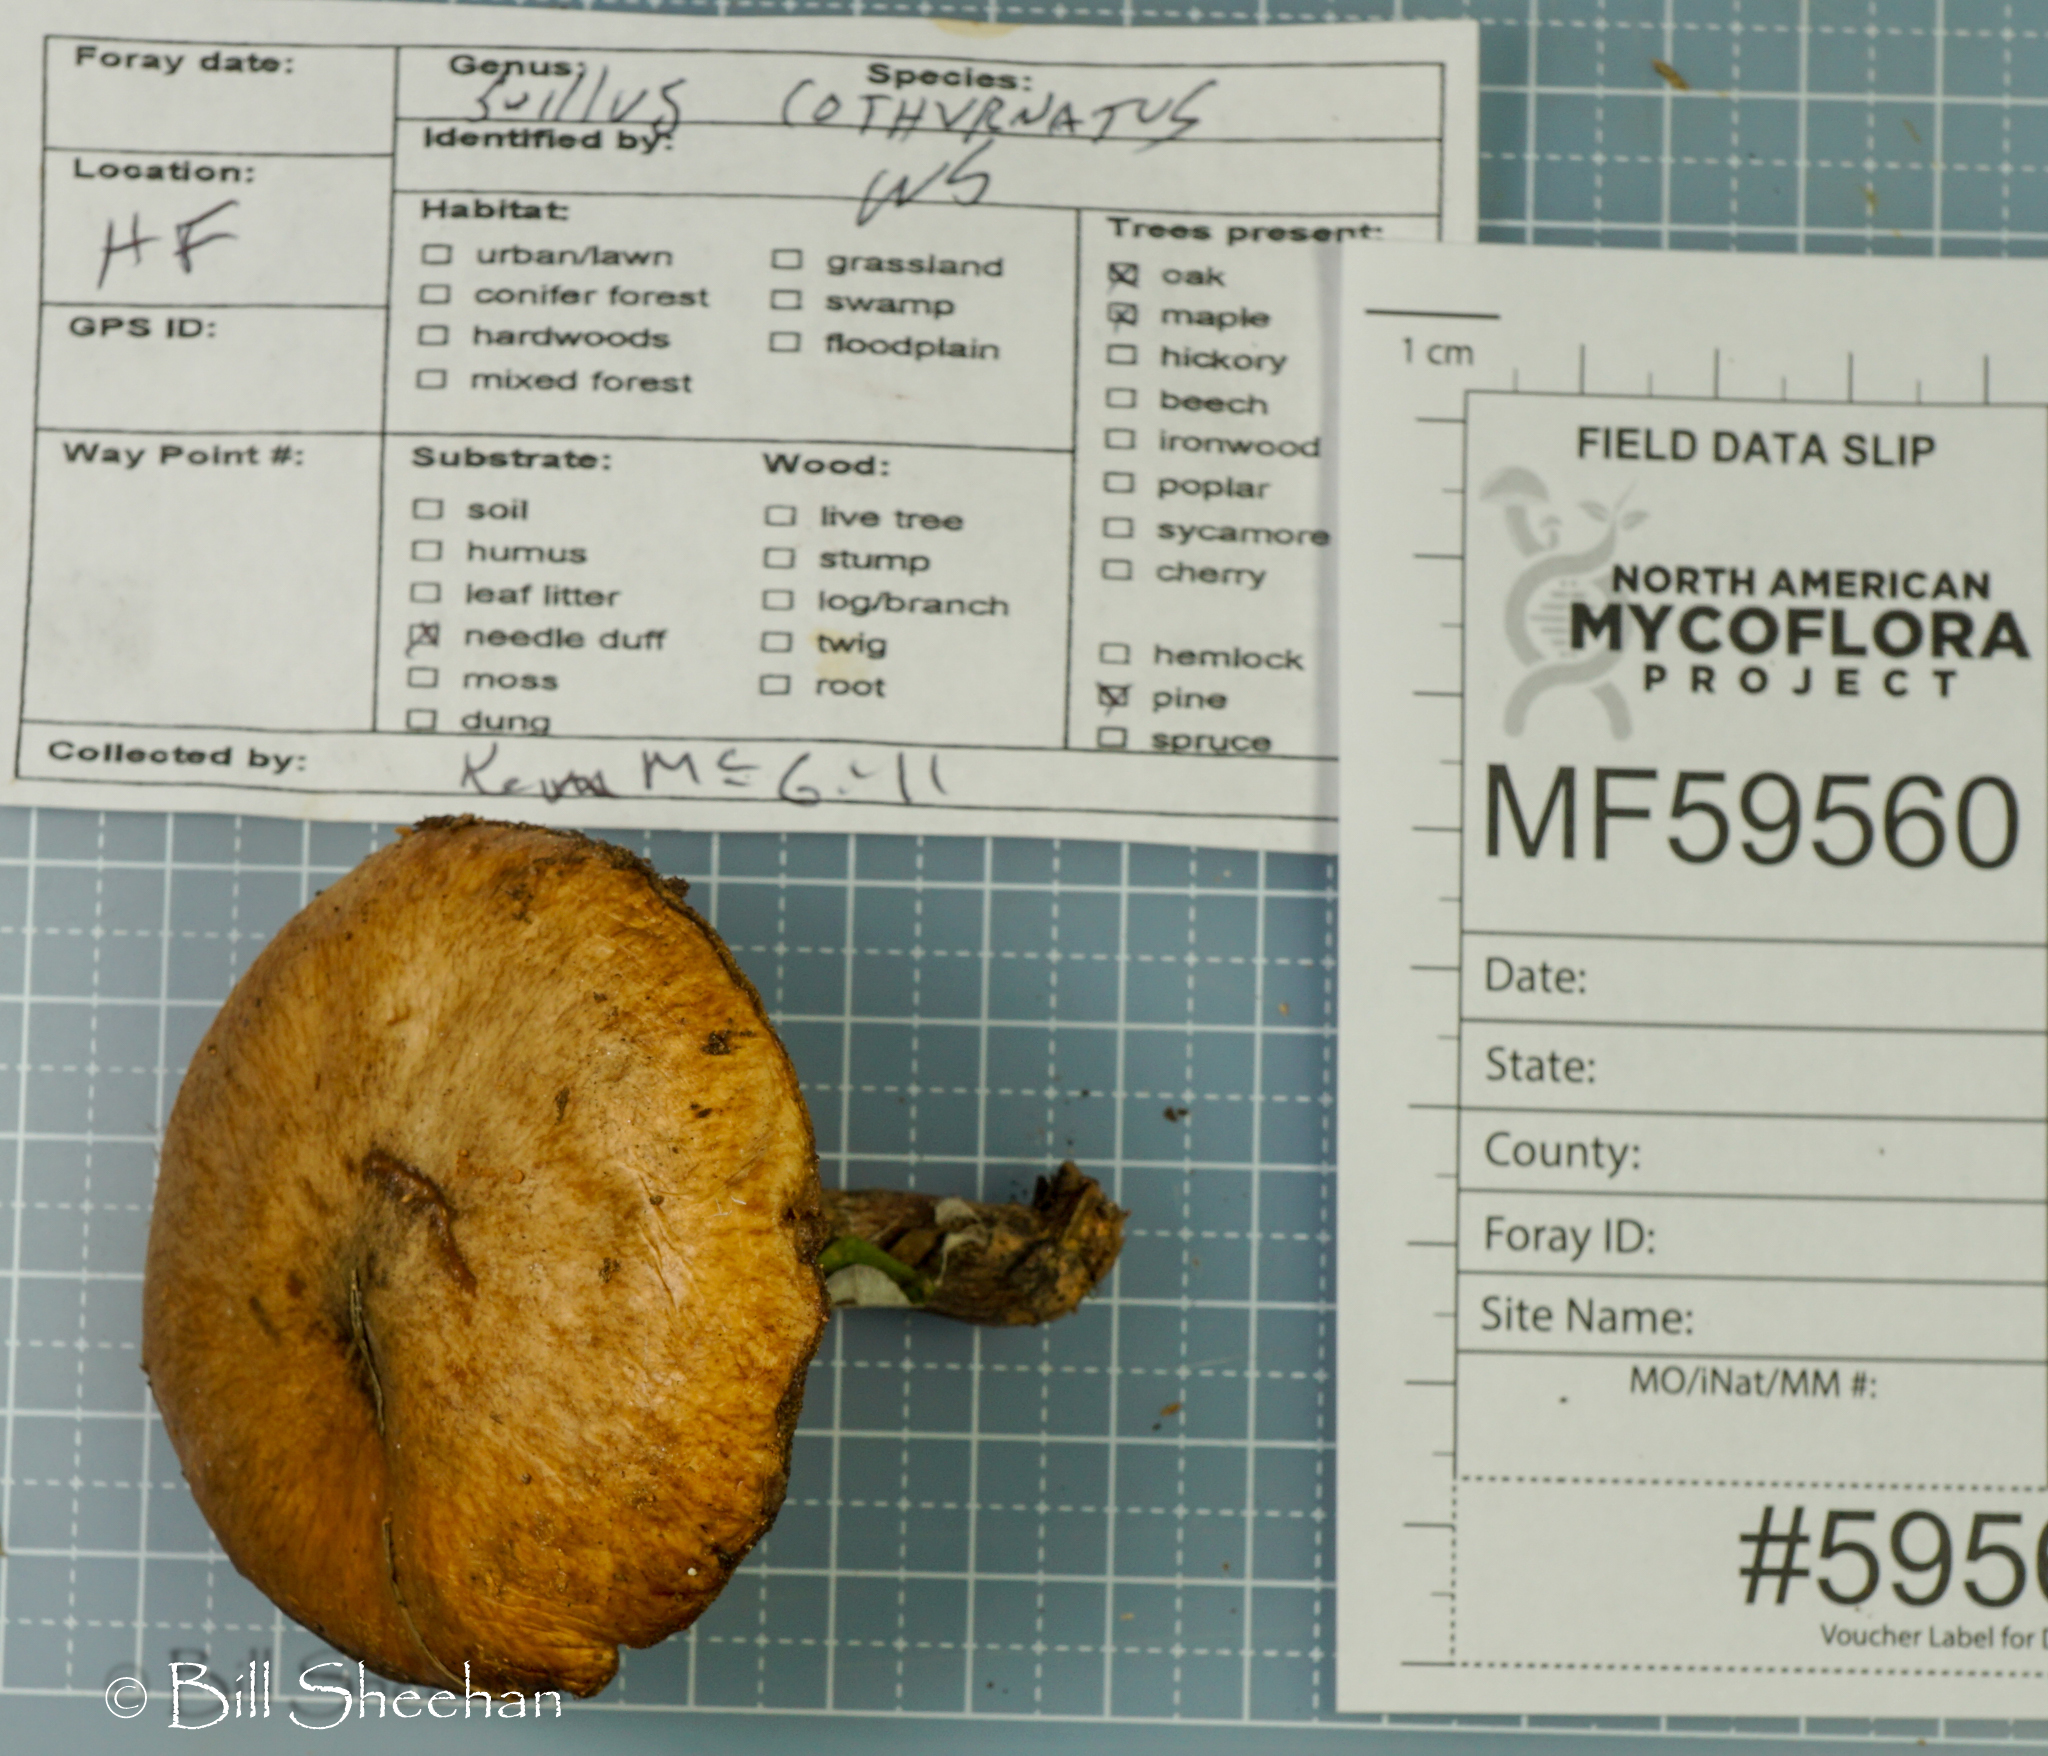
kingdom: Fungi
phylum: Basidiomycota
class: Agaricomycetes
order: Boletales
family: Suillaceae
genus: Suillus
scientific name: Suillus cothurnatus
